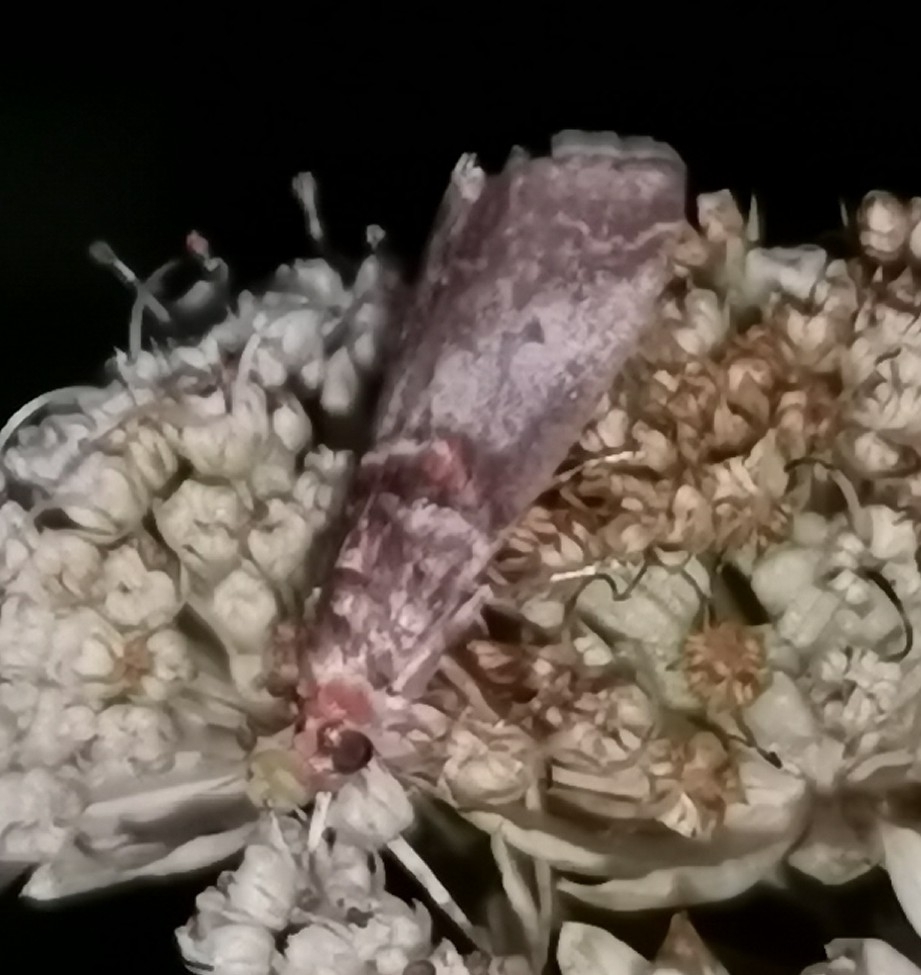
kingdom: Animalia
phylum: Arthropoda
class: Insecta
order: Lepidoptera
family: Pyralidae
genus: Acrobasis
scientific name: Acrobasis advenella
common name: Grey knot-horn
